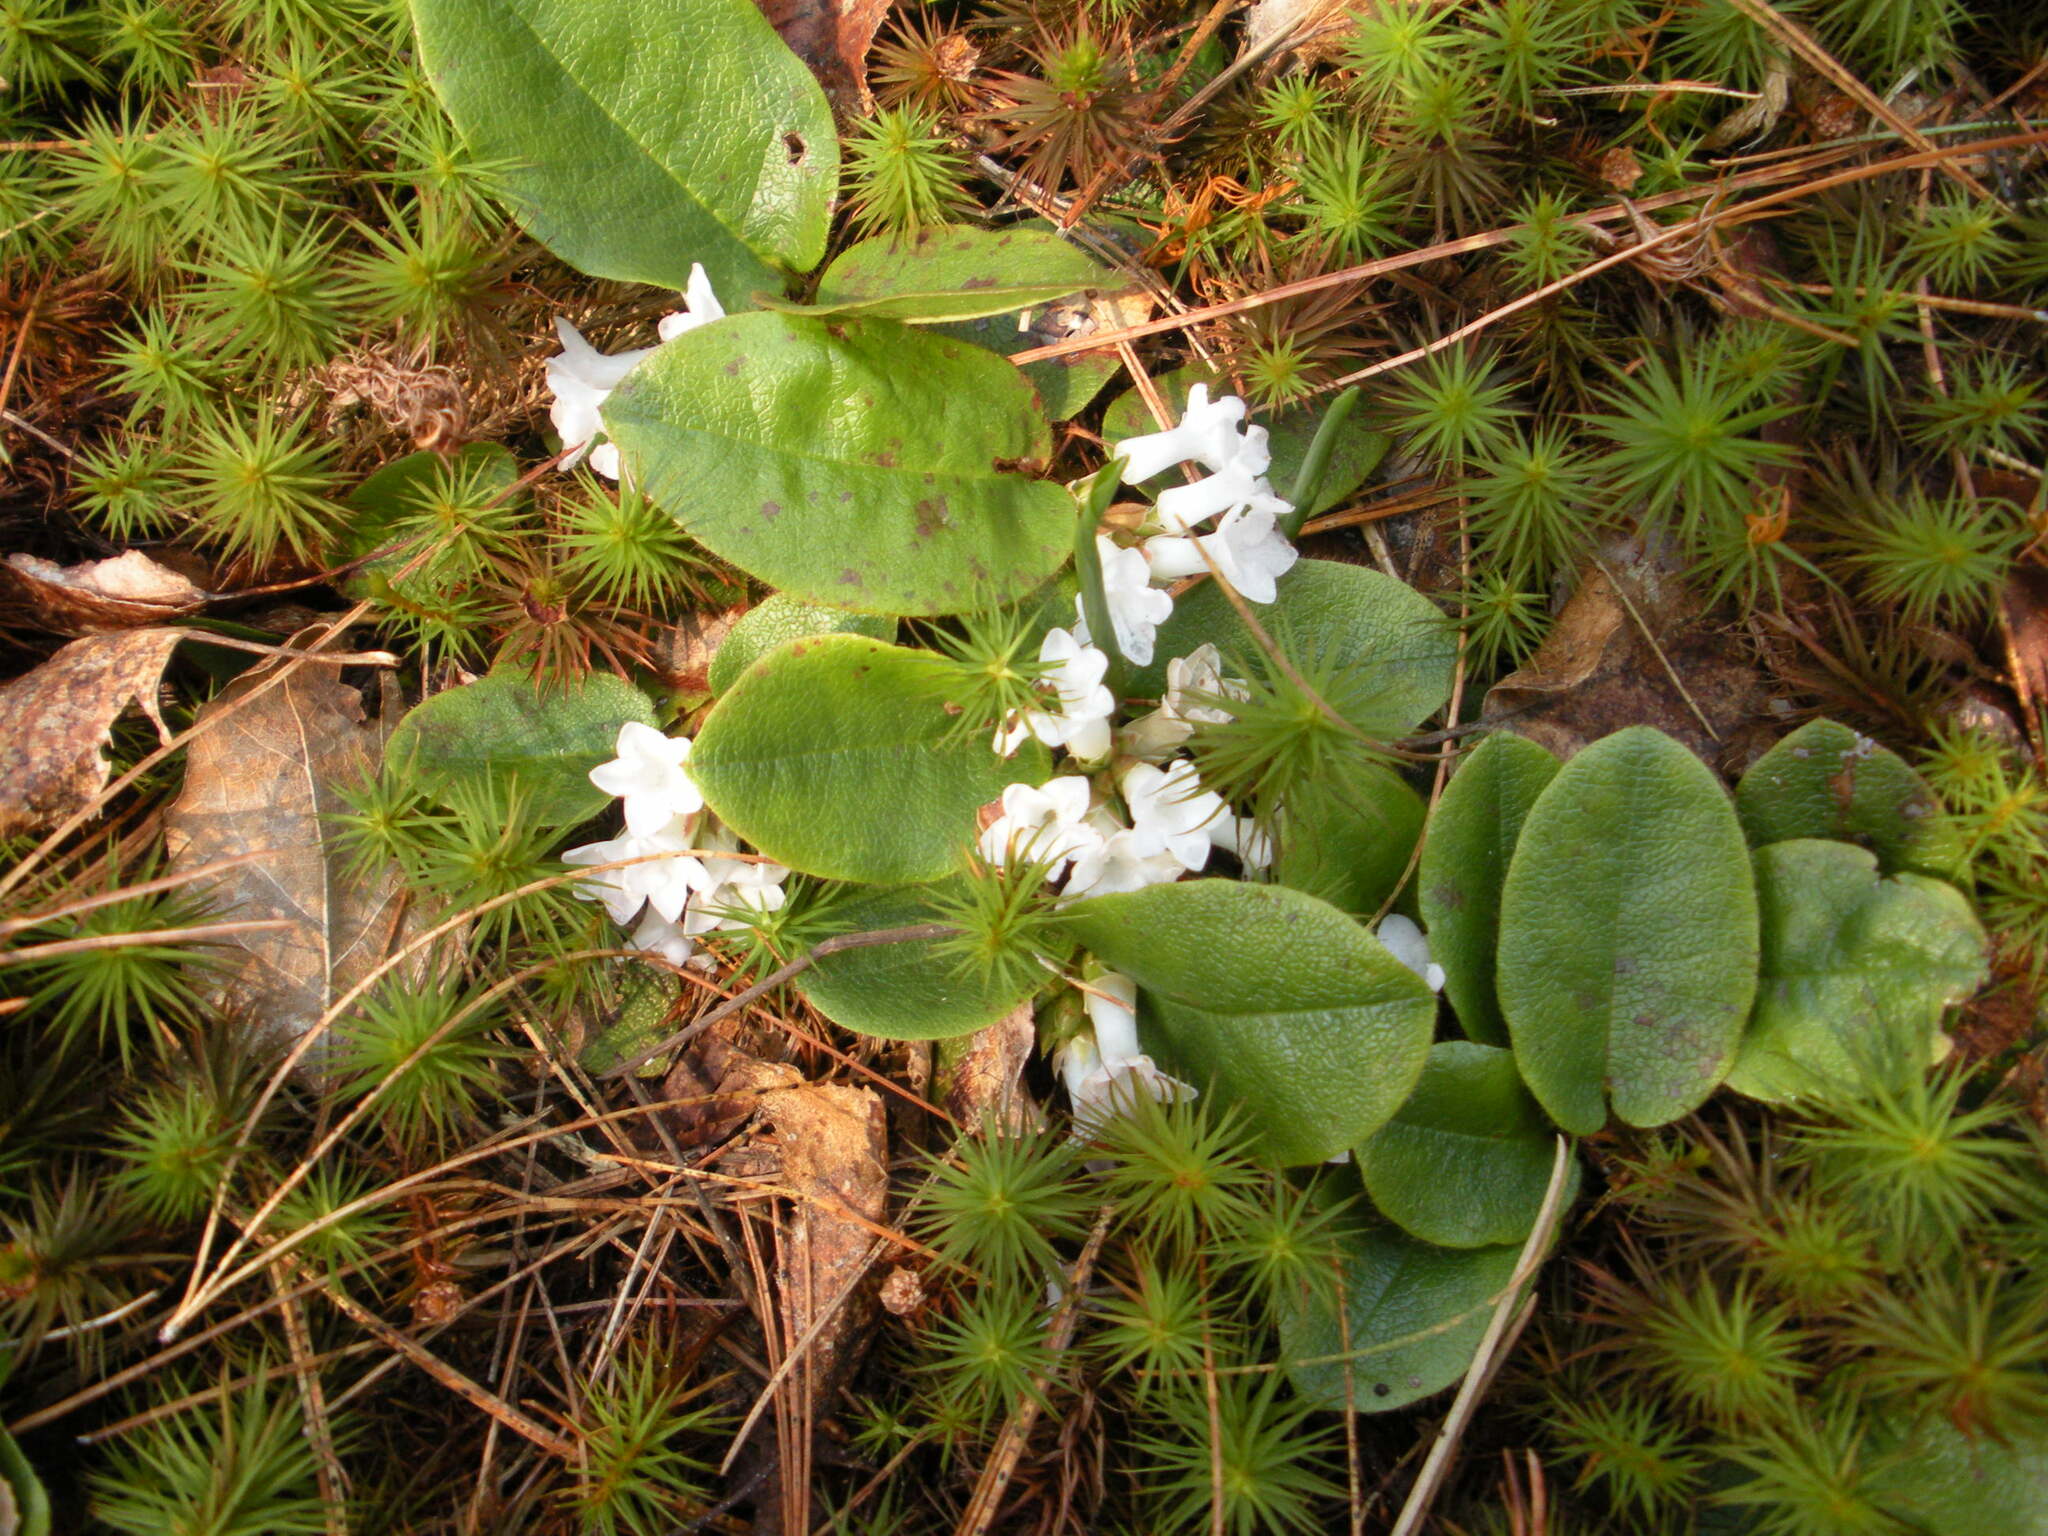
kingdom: Plantae
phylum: Tracheophyta
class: Magnoliopsida
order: Ericales
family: Ericaceae
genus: Epigaea
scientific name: Epigaea repens
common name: Gravelroot
